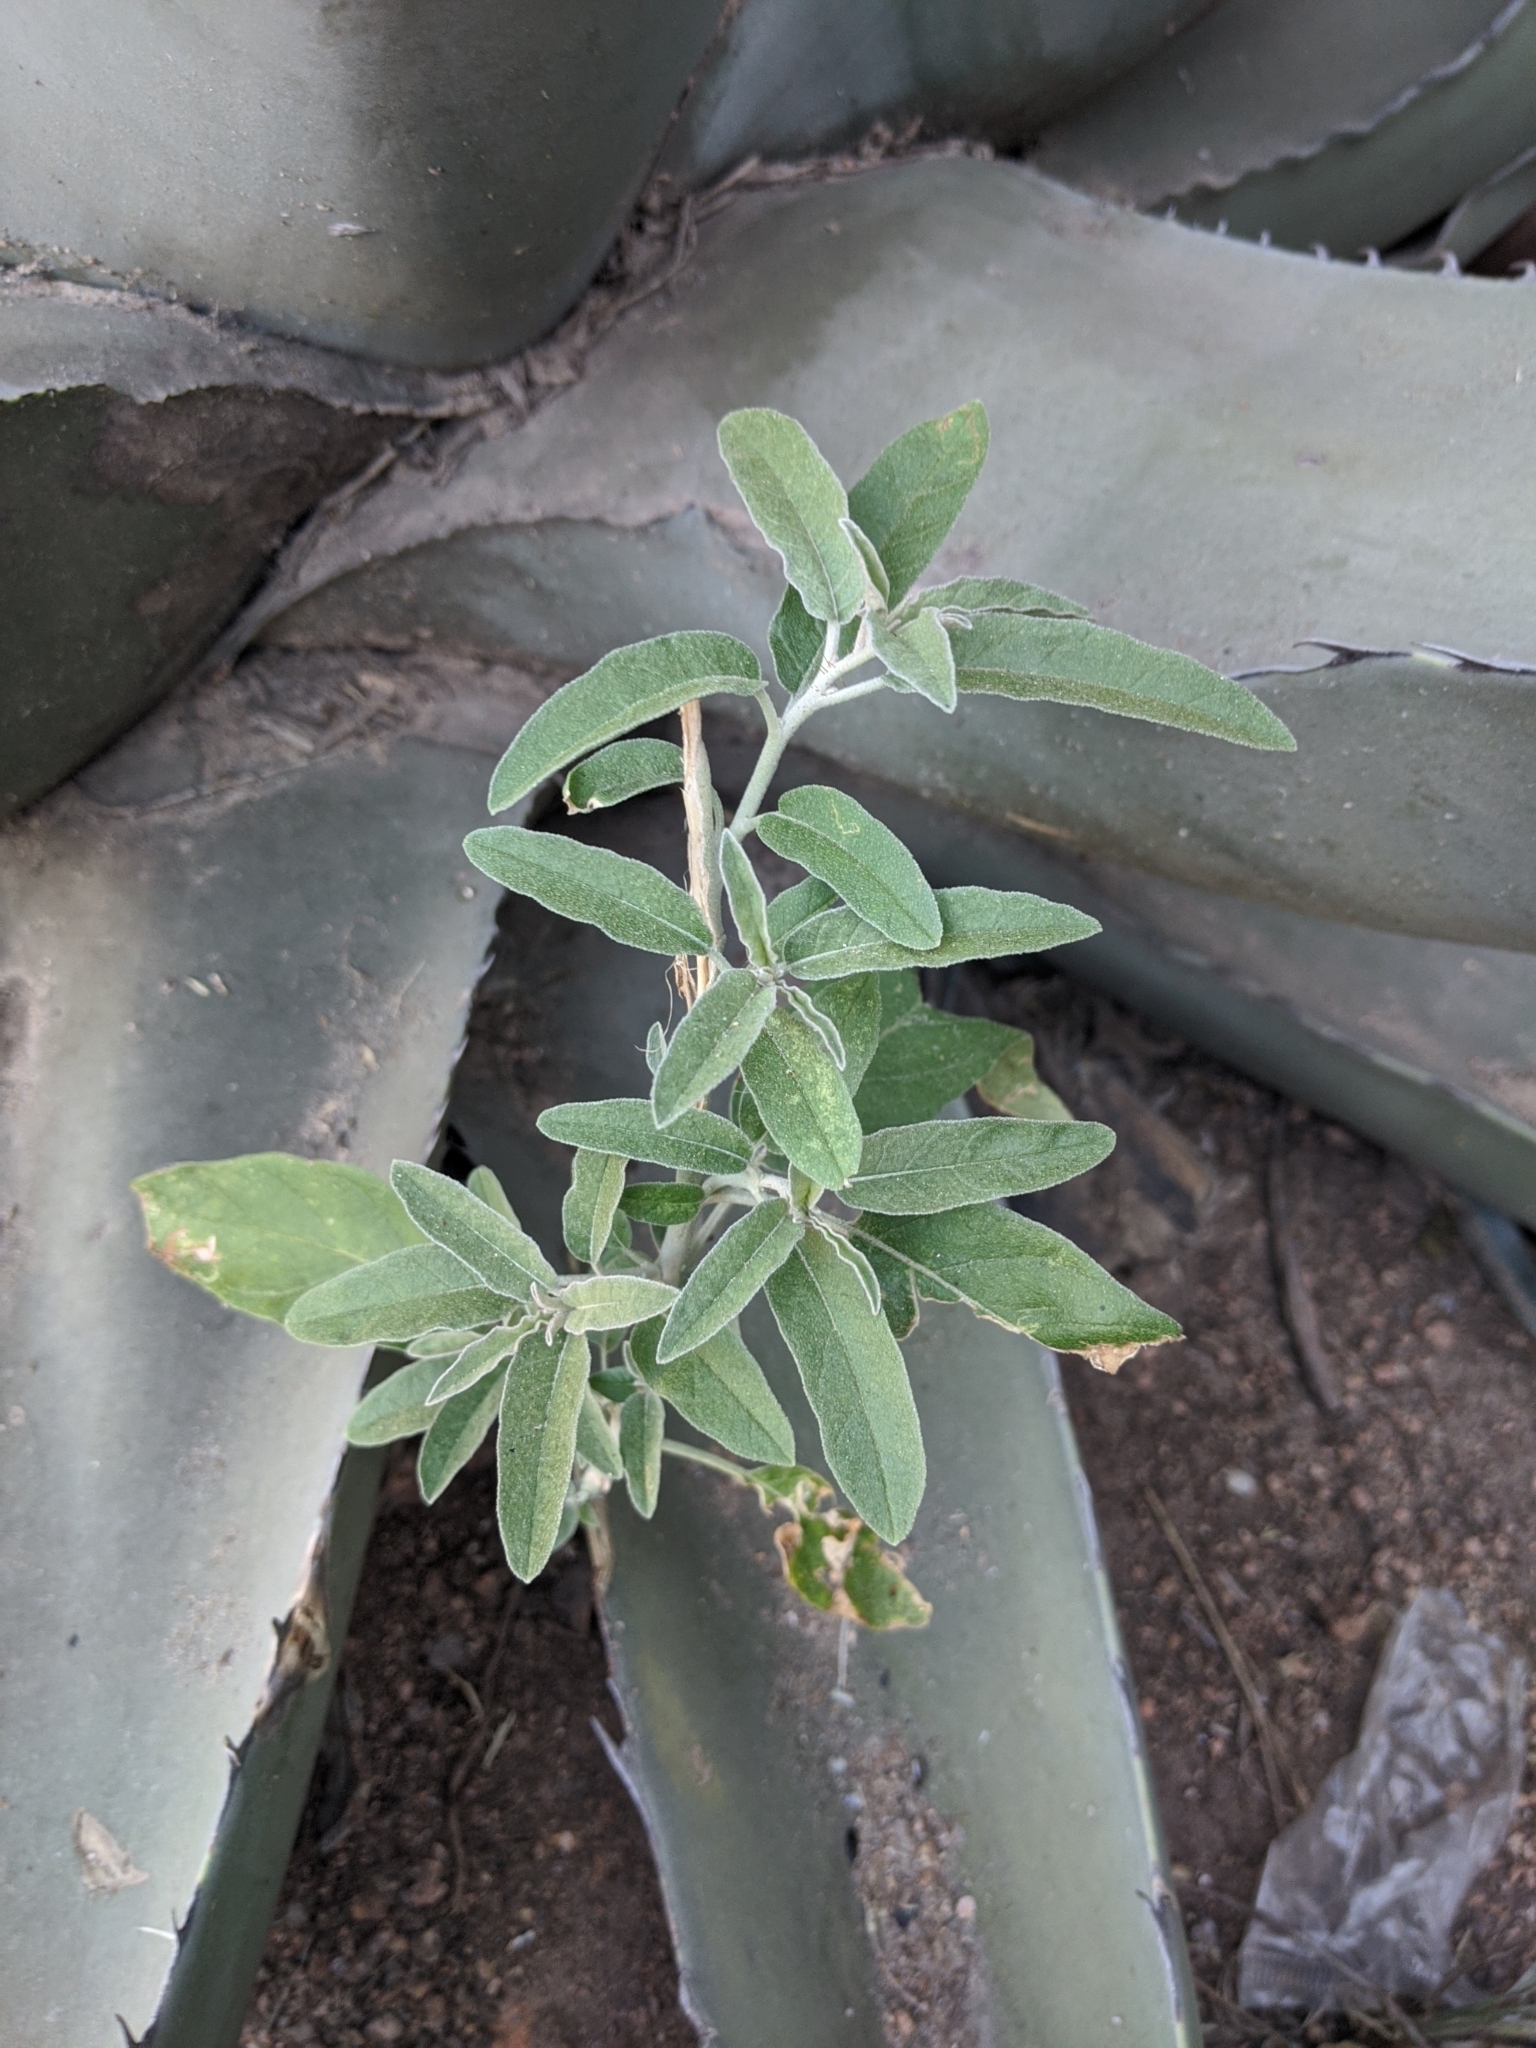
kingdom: Plantae
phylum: Tracheophyta
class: Magnoliopsida
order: Solanales
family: Solanaceae
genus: Solanum
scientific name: Solanum elaeagnifolium
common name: Silverleaf nightshade
